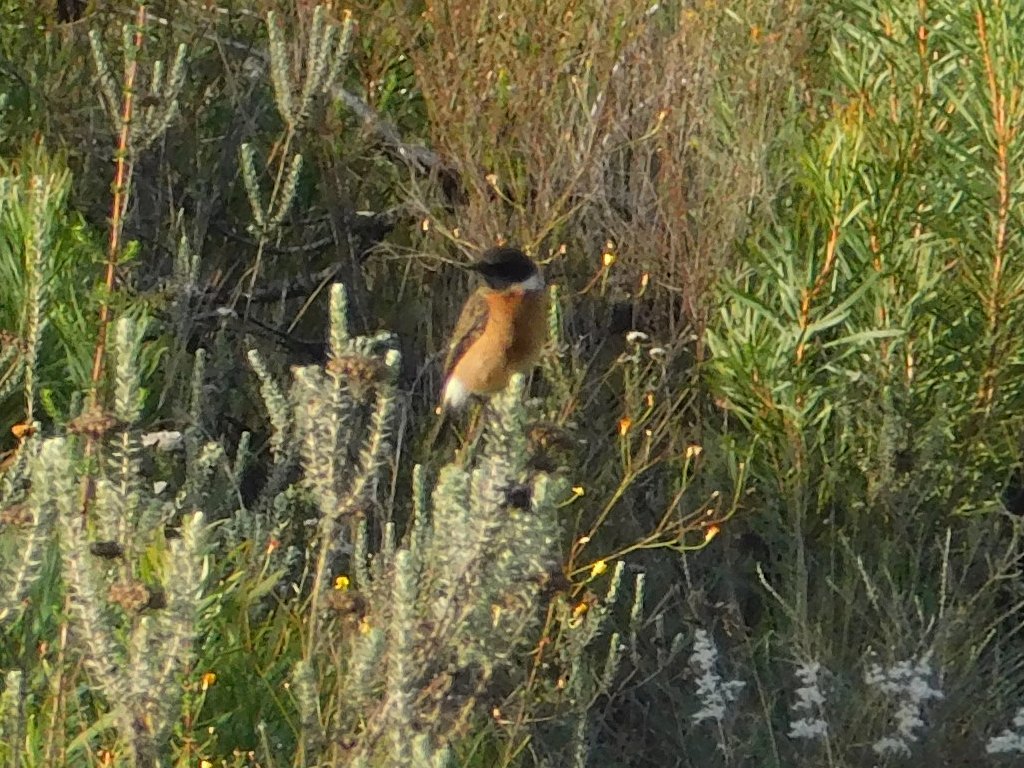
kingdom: Animalia
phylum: Chordata
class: Aves
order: Passeriformes
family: Muscicapidae
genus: Saxicola
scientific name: Saxicola torquatus
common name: African stonechat
